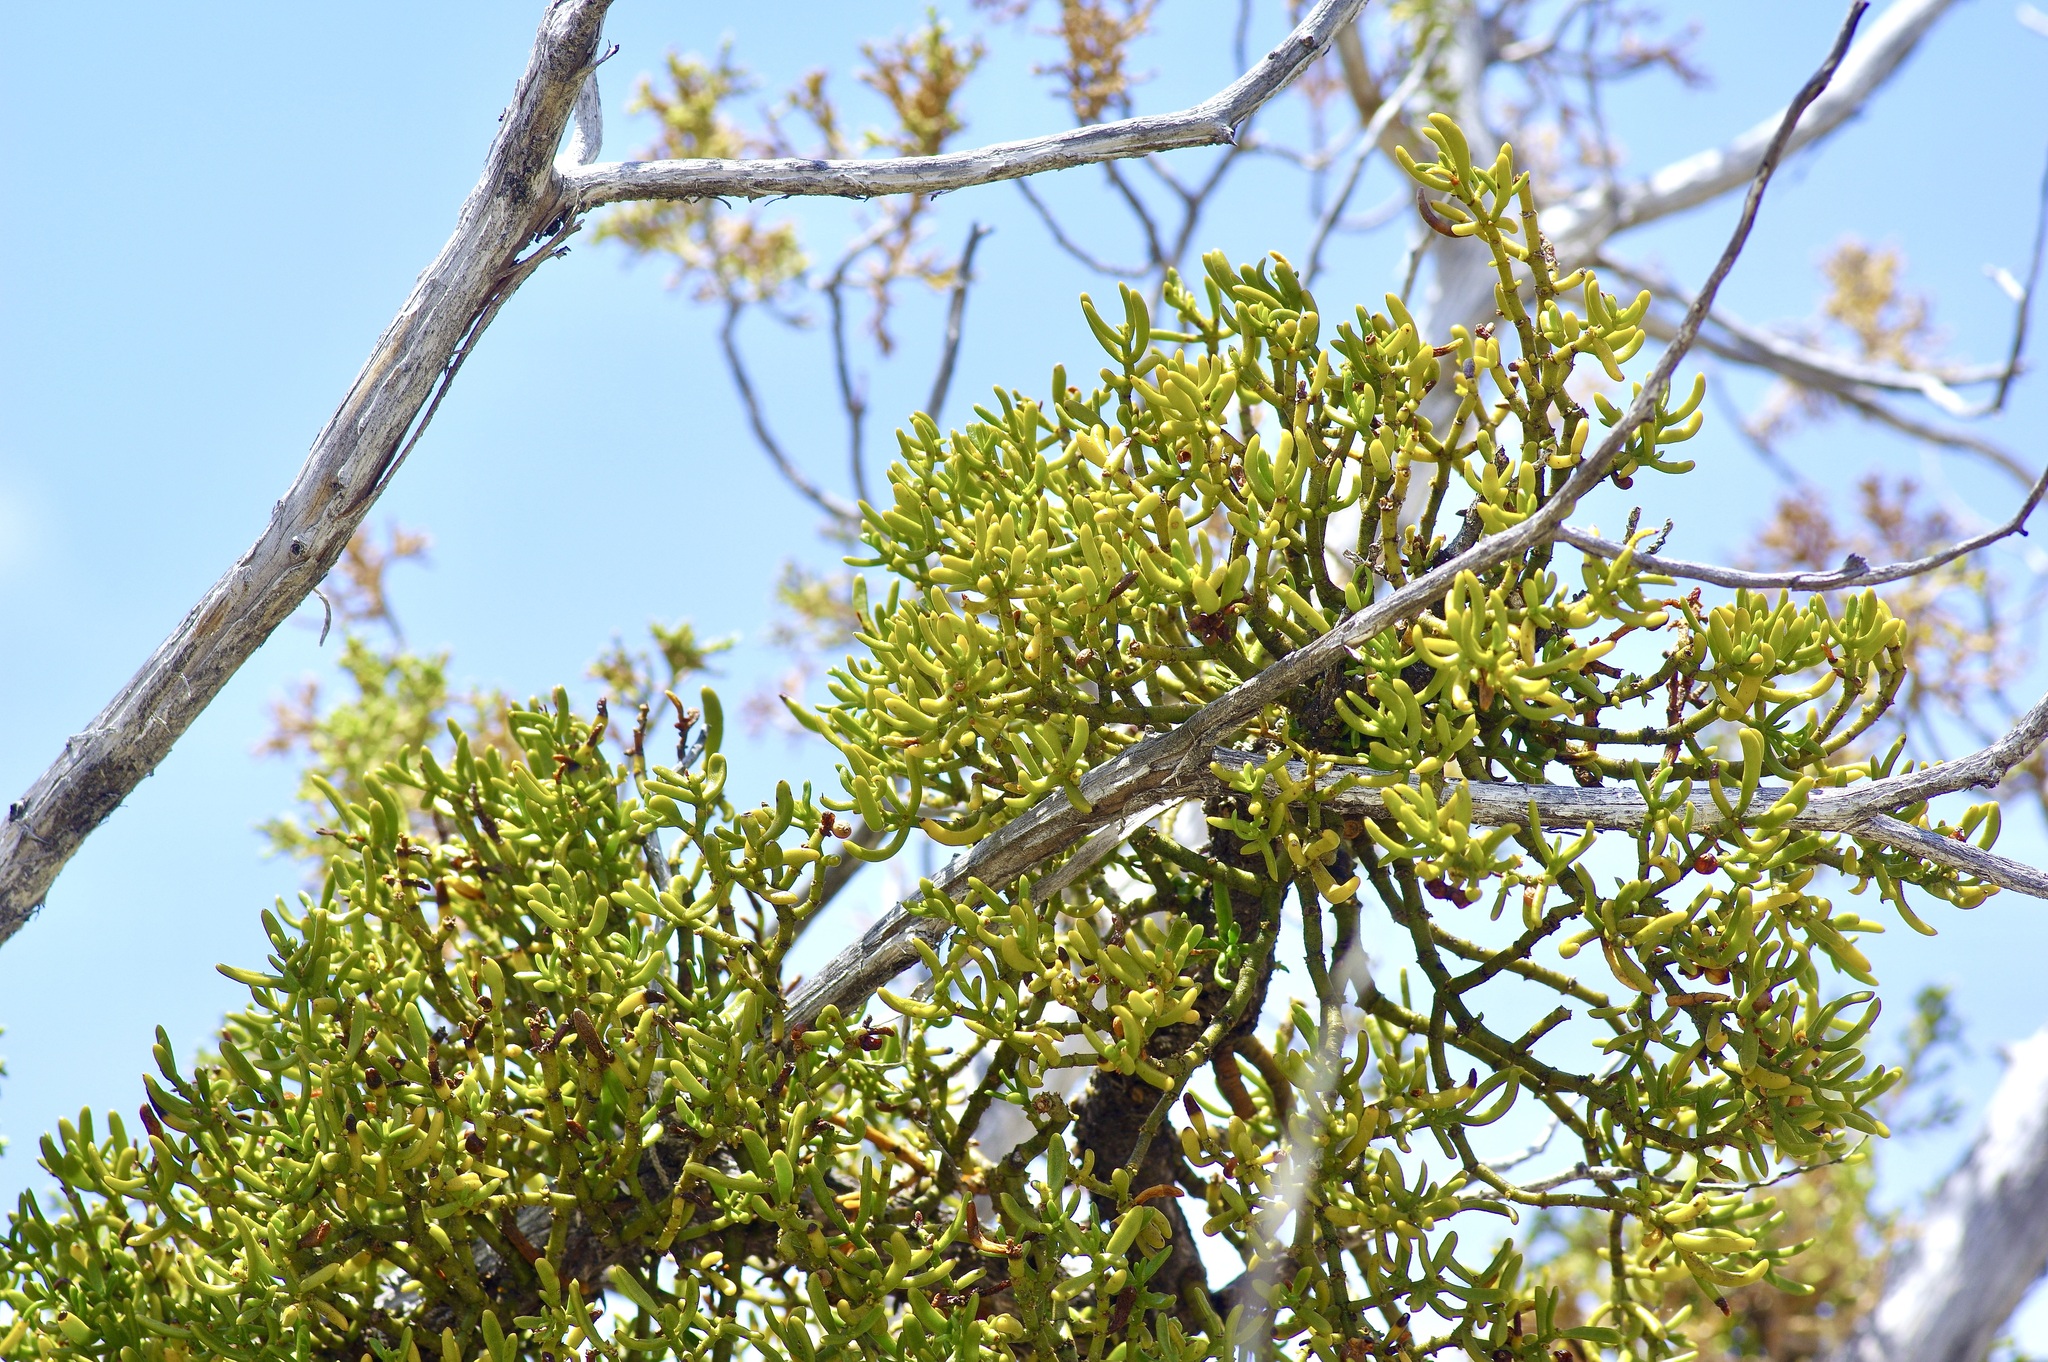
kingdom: Plantae
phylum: Tracheophyta
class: Magnoliopsida
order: Santalales
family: Viscaceae
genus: Phoradendron
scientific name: Phoradendron hawksworthii
